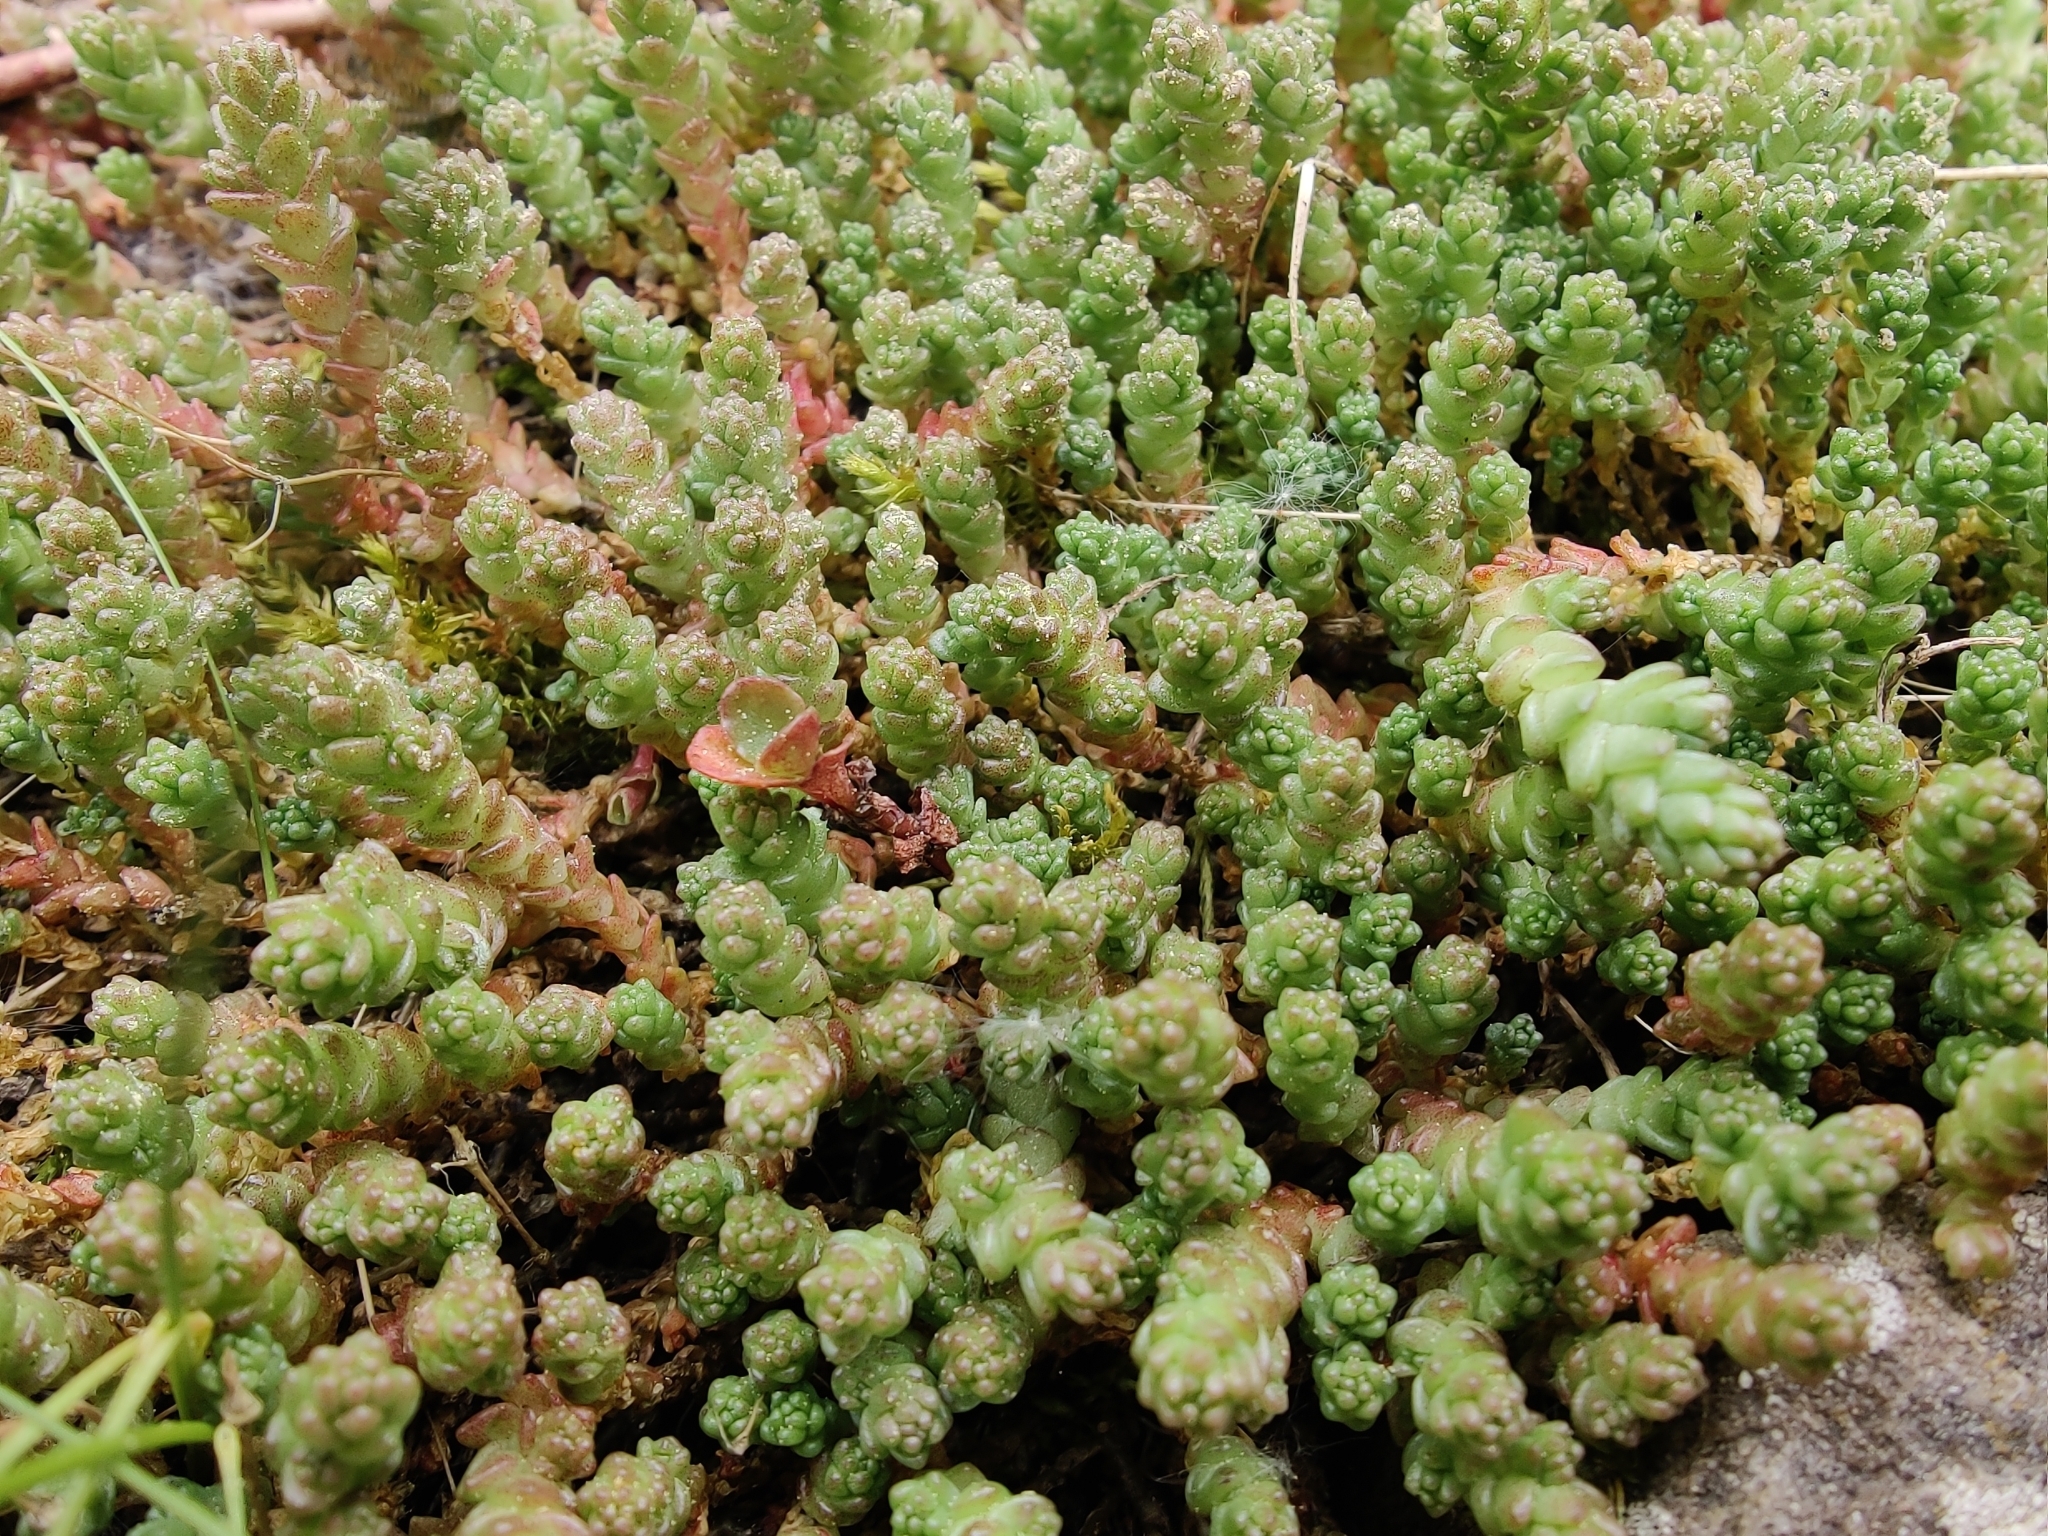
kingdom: Plantae
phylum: Tracheophyta
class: Magnoliopsida
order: Saxifragales
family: Crassulaceae
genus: Sedum
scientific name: Sedum acre
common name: Biting stonecrop
